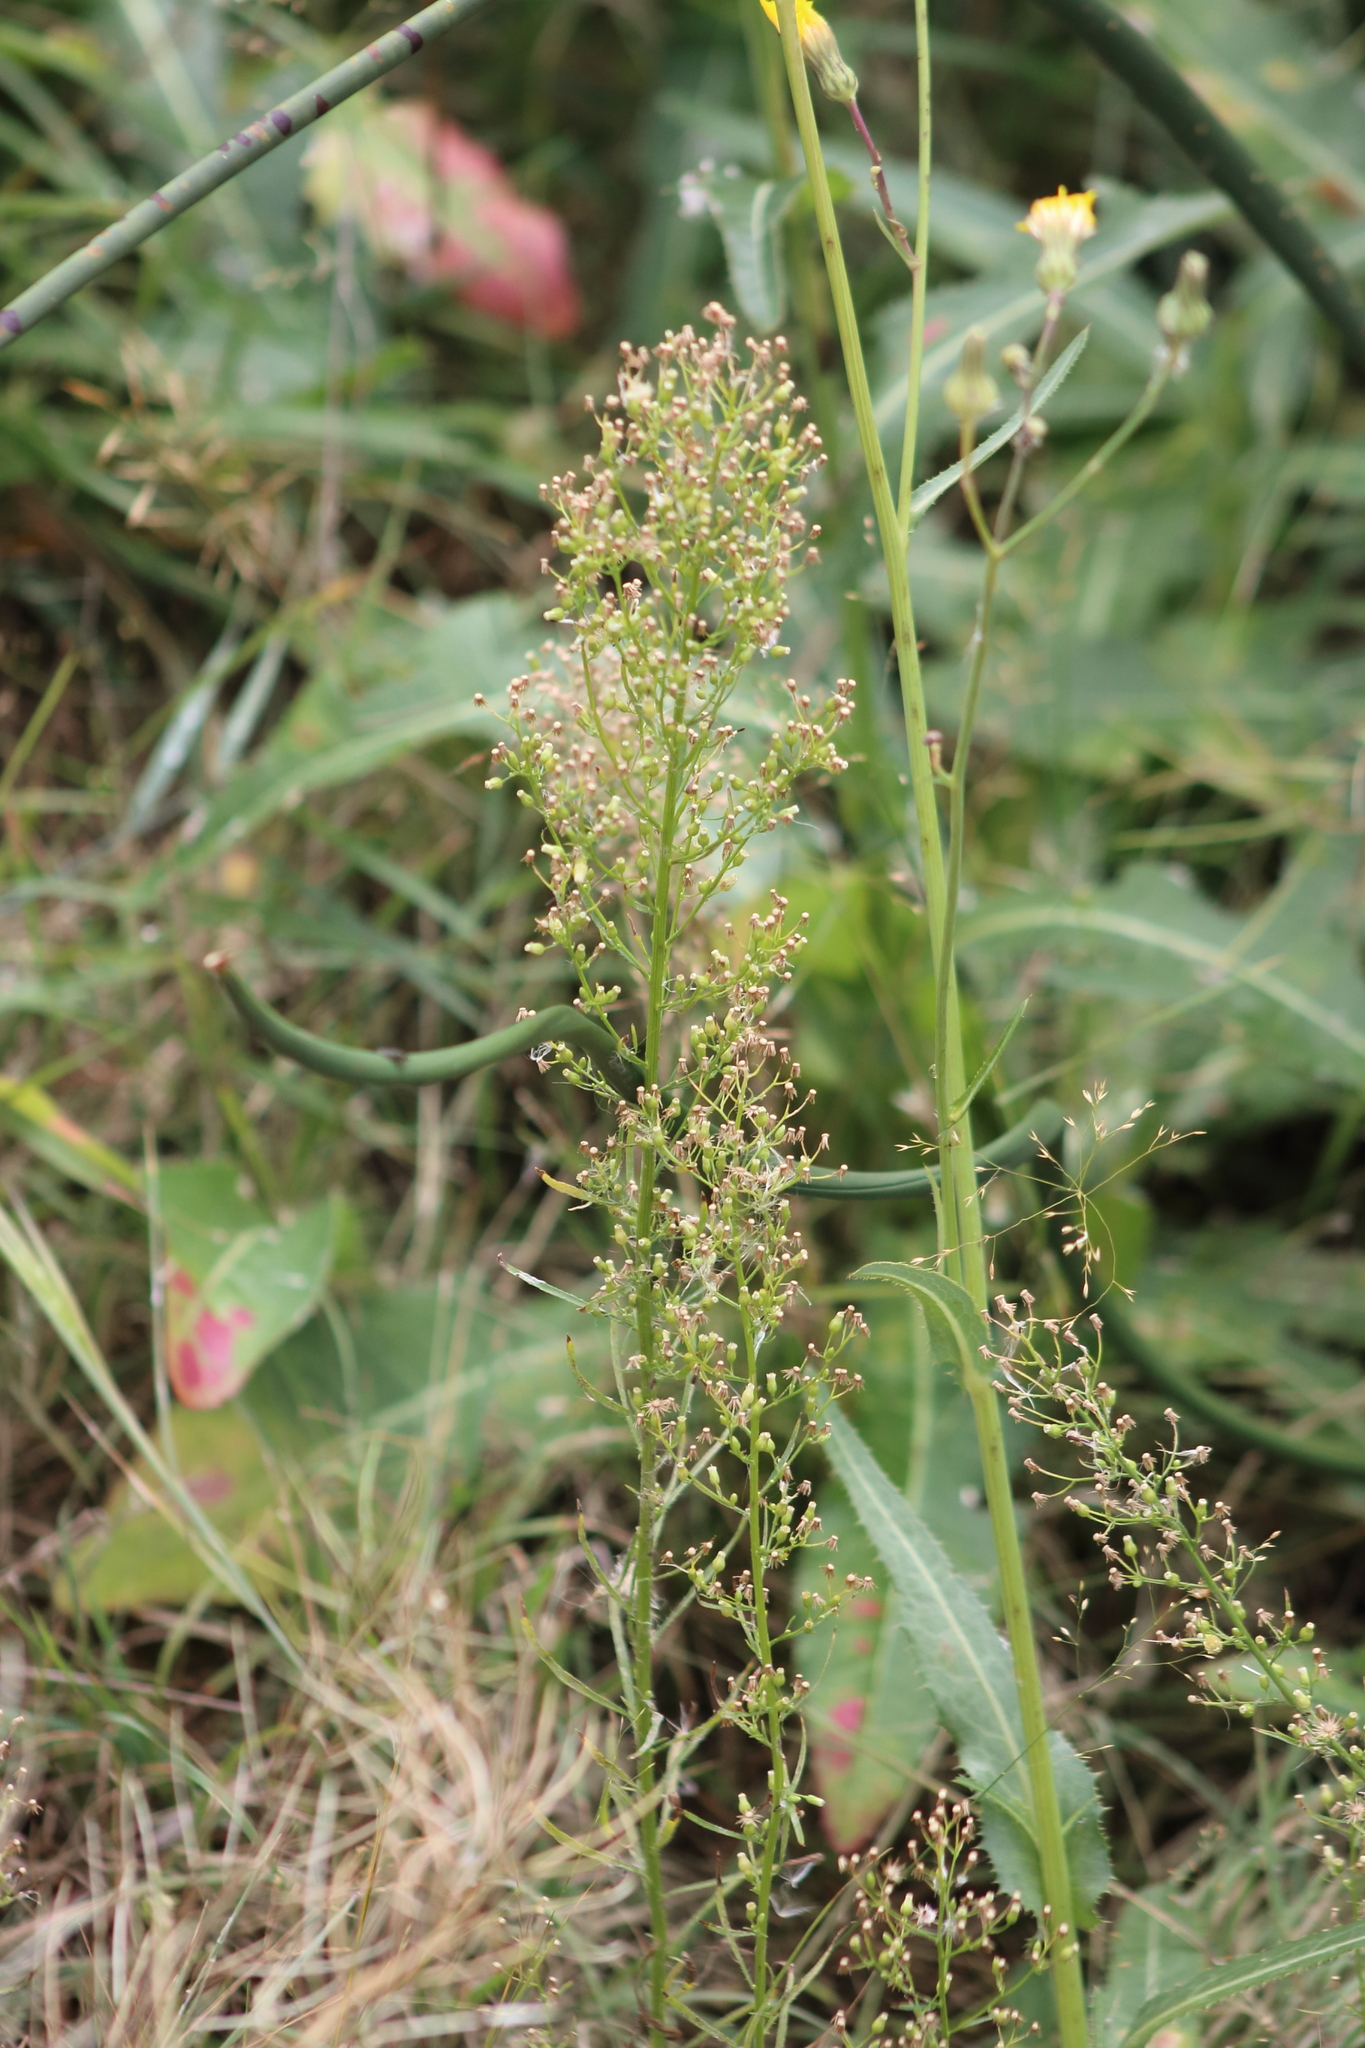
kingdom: Plantae
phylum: Tracheophyta
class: Magnoliopsida
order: Asterales
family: Asteraceae
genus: Erigeron
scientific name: Erigeron canadensis
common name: Canadian fleabane
